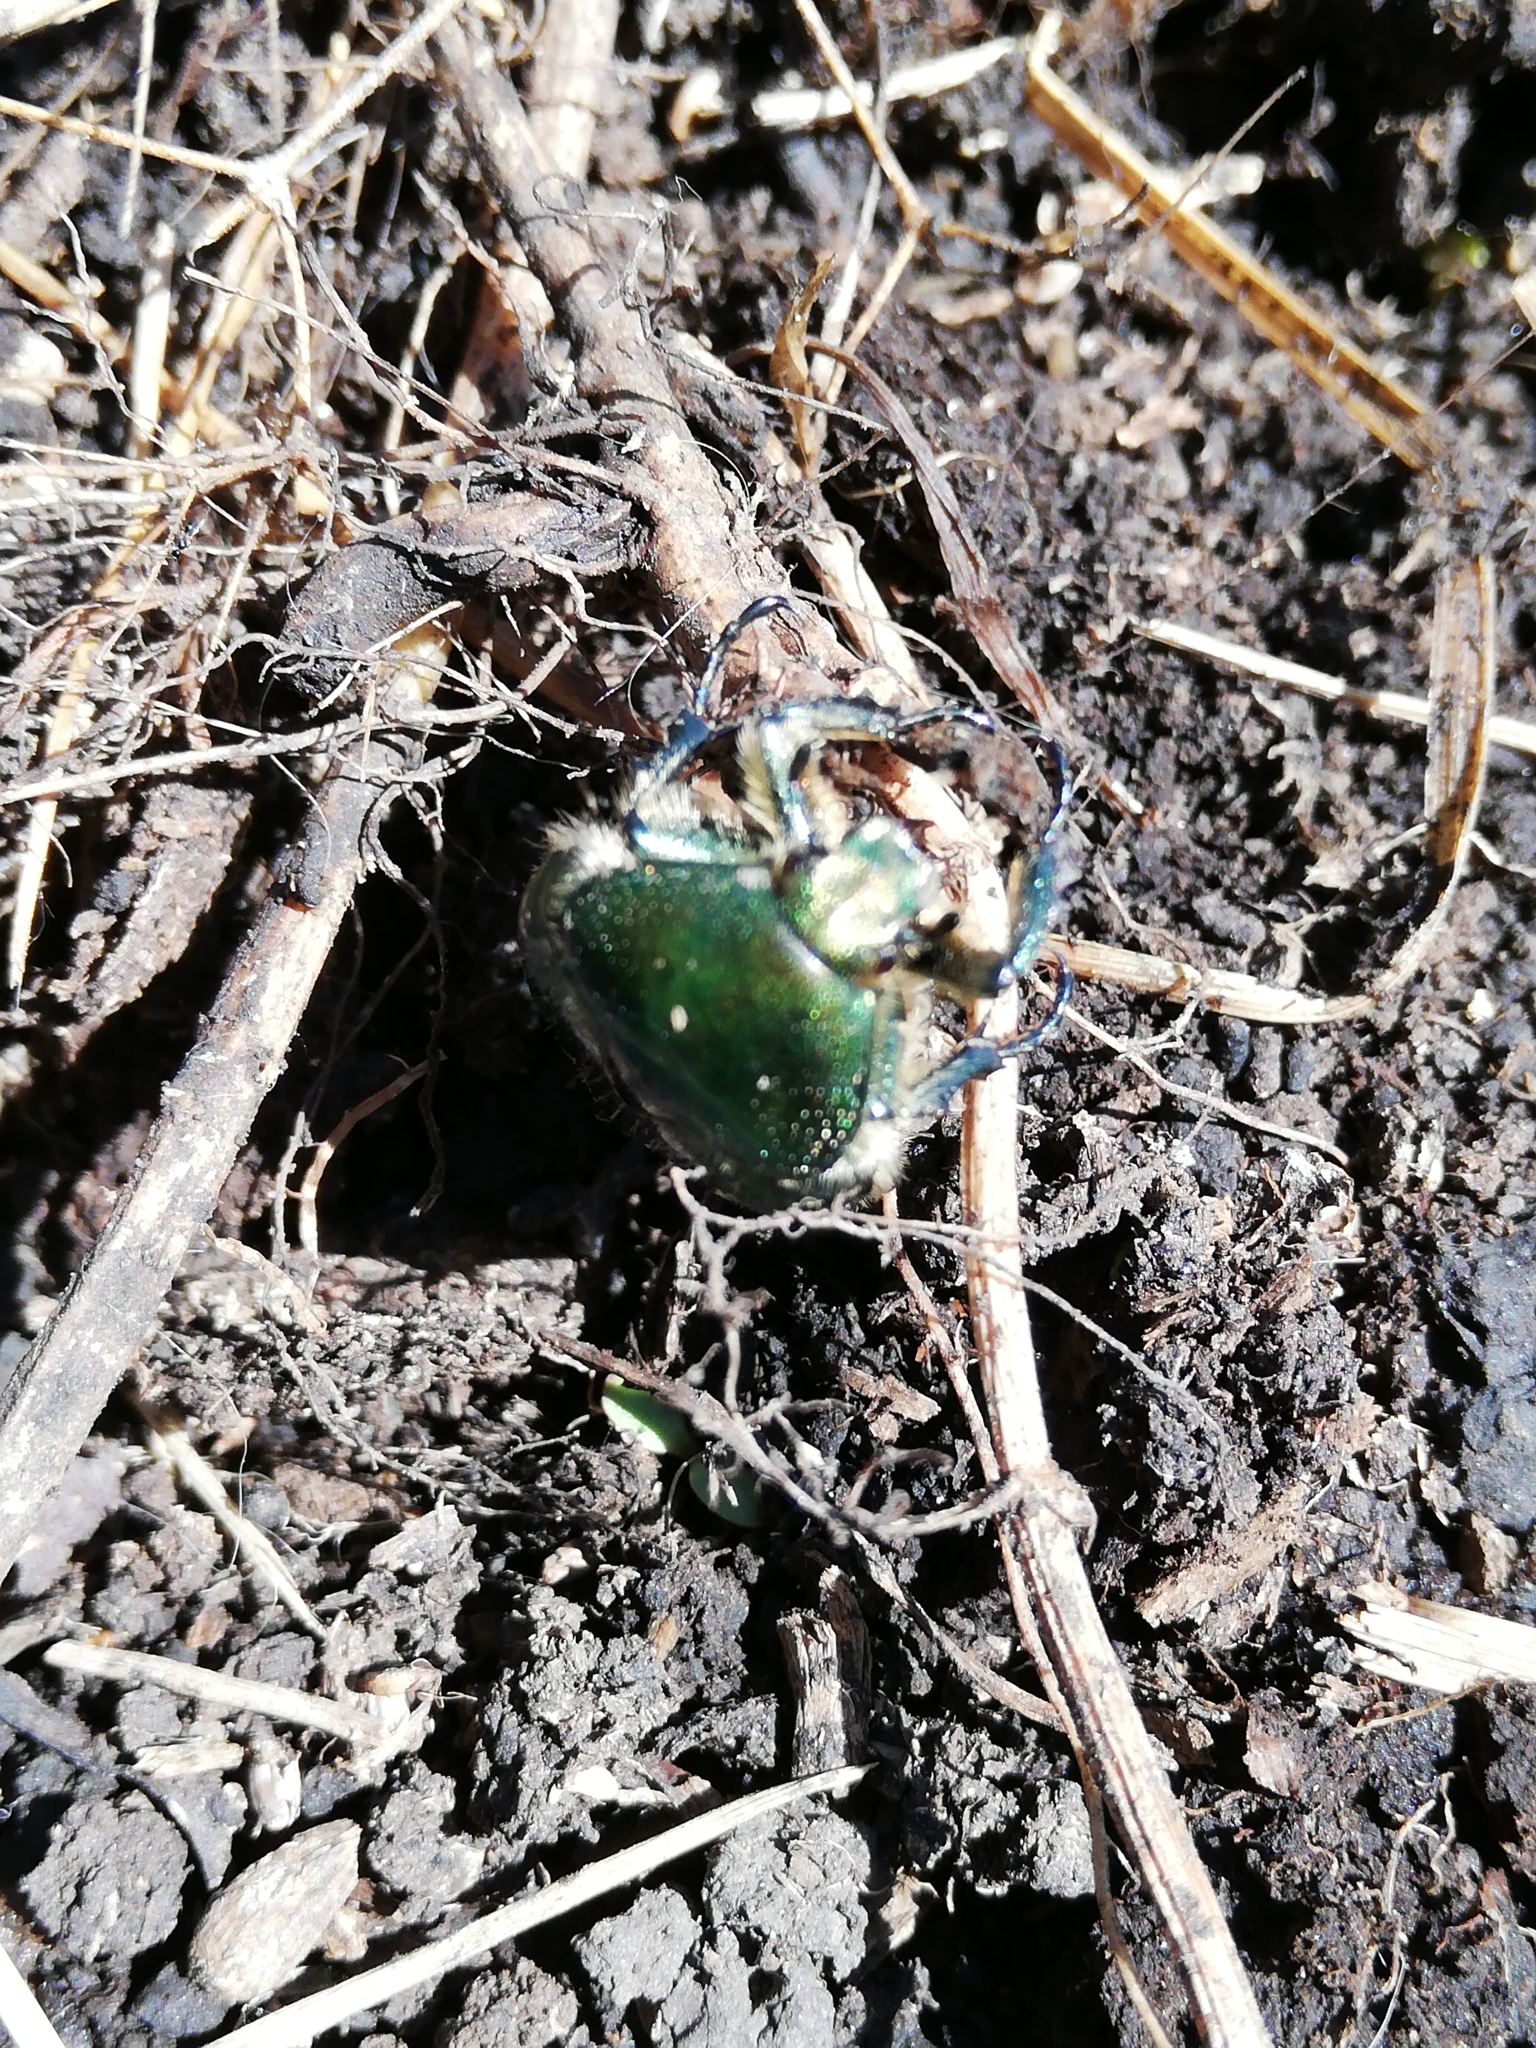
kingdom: Animalia
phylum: Arthropoda
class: Insecta
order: Coleoptera
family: Scarabaeidae
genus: Cetonia
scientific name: Cetonia aurata
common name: Rose chafer
